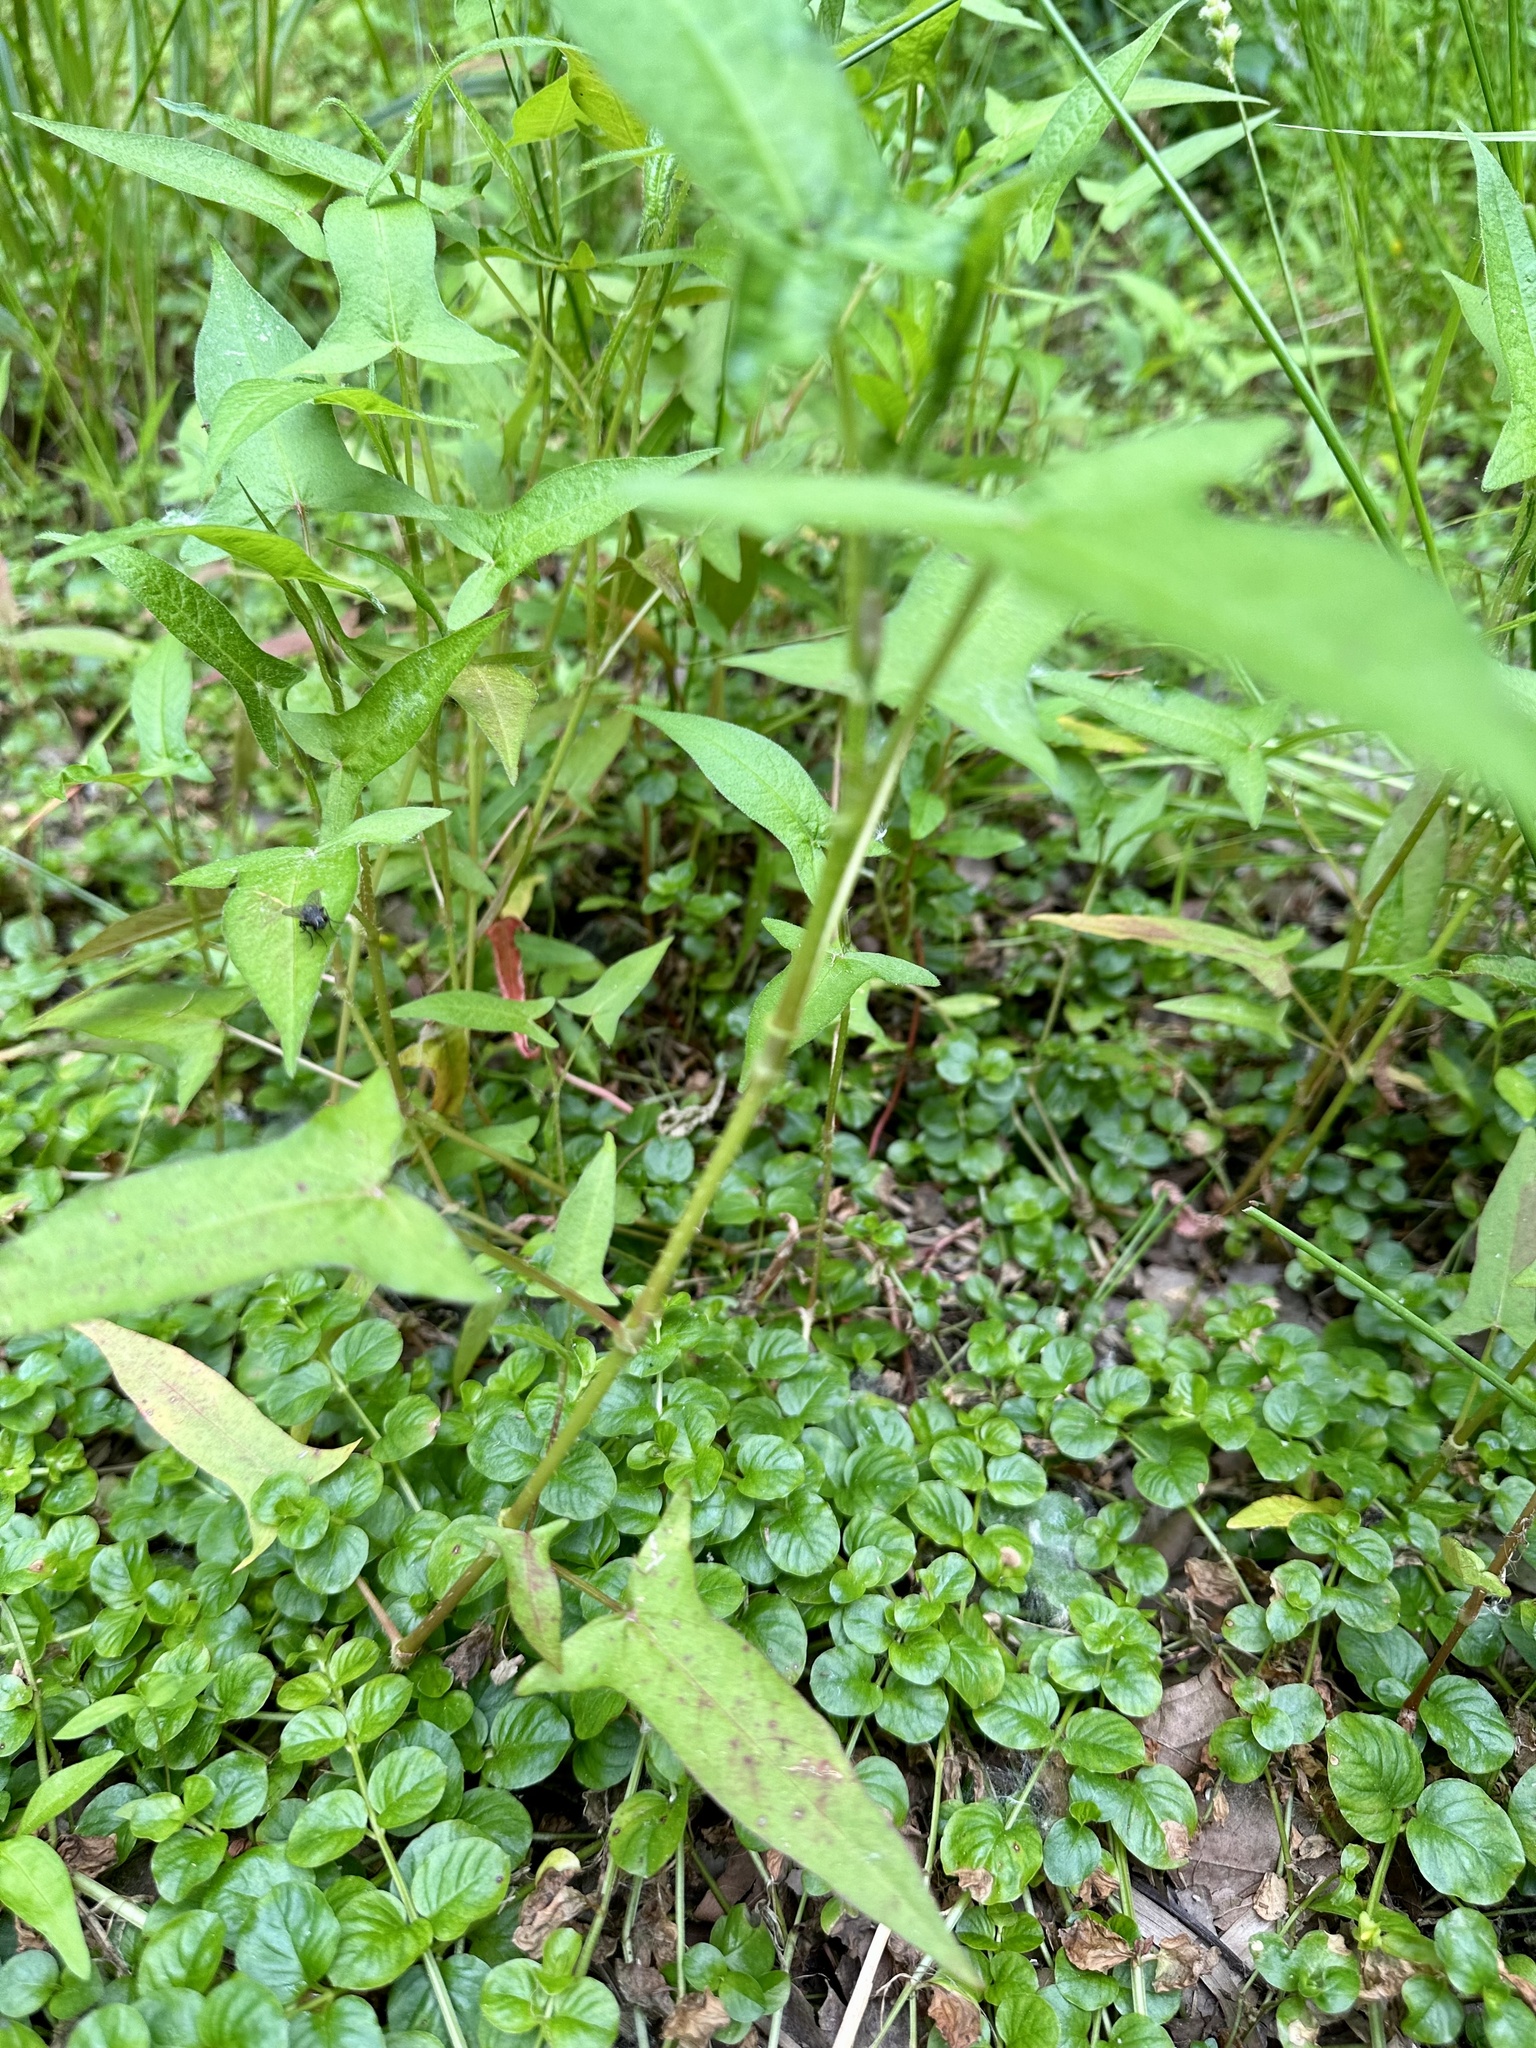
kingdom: Plantae
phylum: Tracheophyta
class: Magnoliopsida
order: Caryophyllales
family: Polygonaceae
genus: Persicaria
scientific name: Persicaria arifolia
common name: Halberd-leaved tear-thumb
